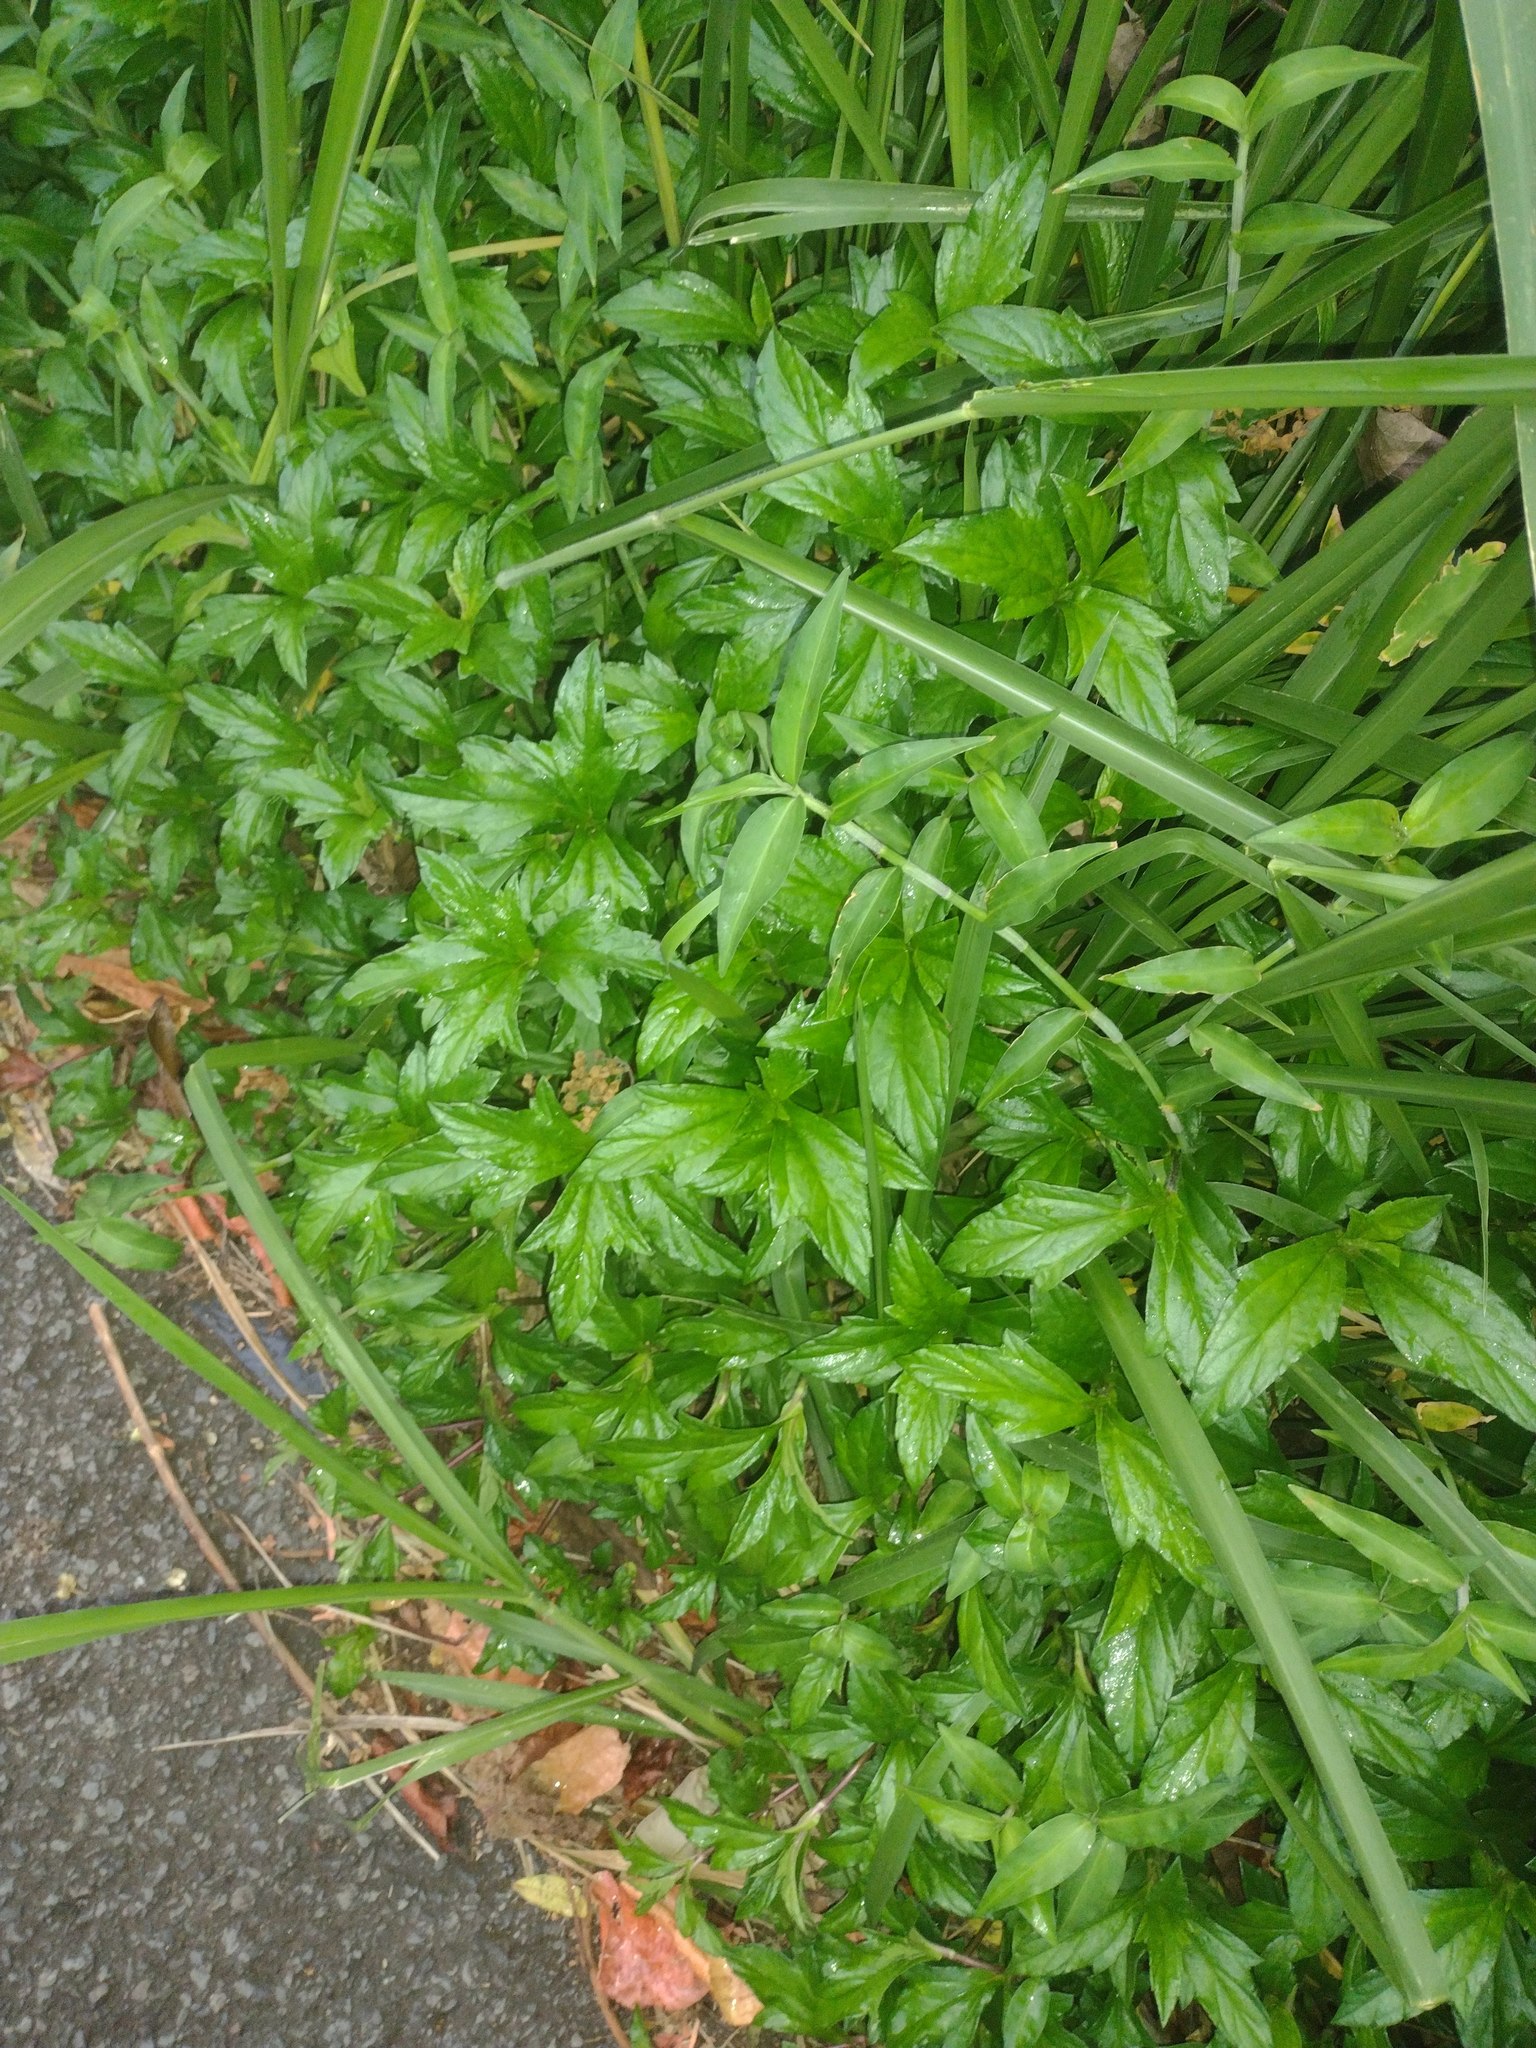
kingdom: Plantae
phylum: Tracheophyta
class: Magnoliopsida
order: Asterales
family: Asteraceae
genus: Sphagneticola
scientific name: Sphagneticola trilobata
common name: Bay biscayne creeping-oxeye
